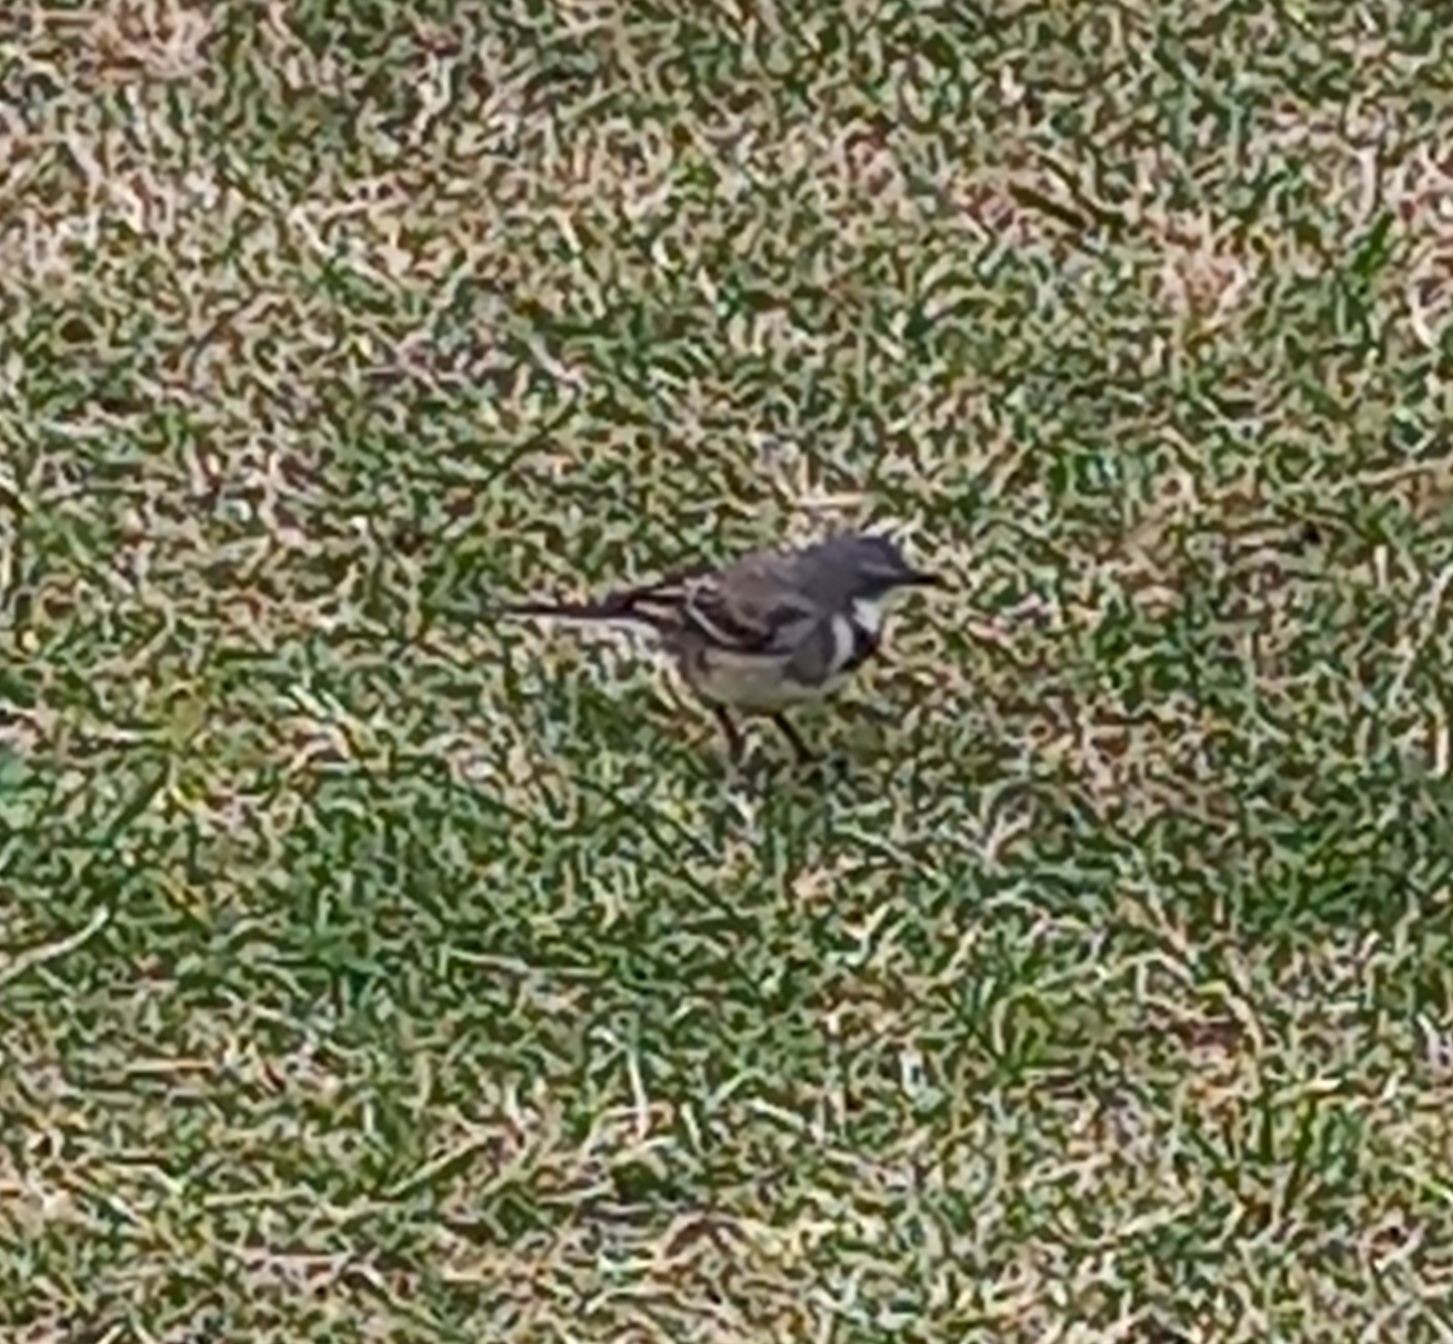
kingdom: Animalia
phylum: Chordata
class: Aves
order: Passeriformes
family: Motacillidae
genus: Motacilla
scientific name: Motacilla capensis
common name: Cape wagtail
